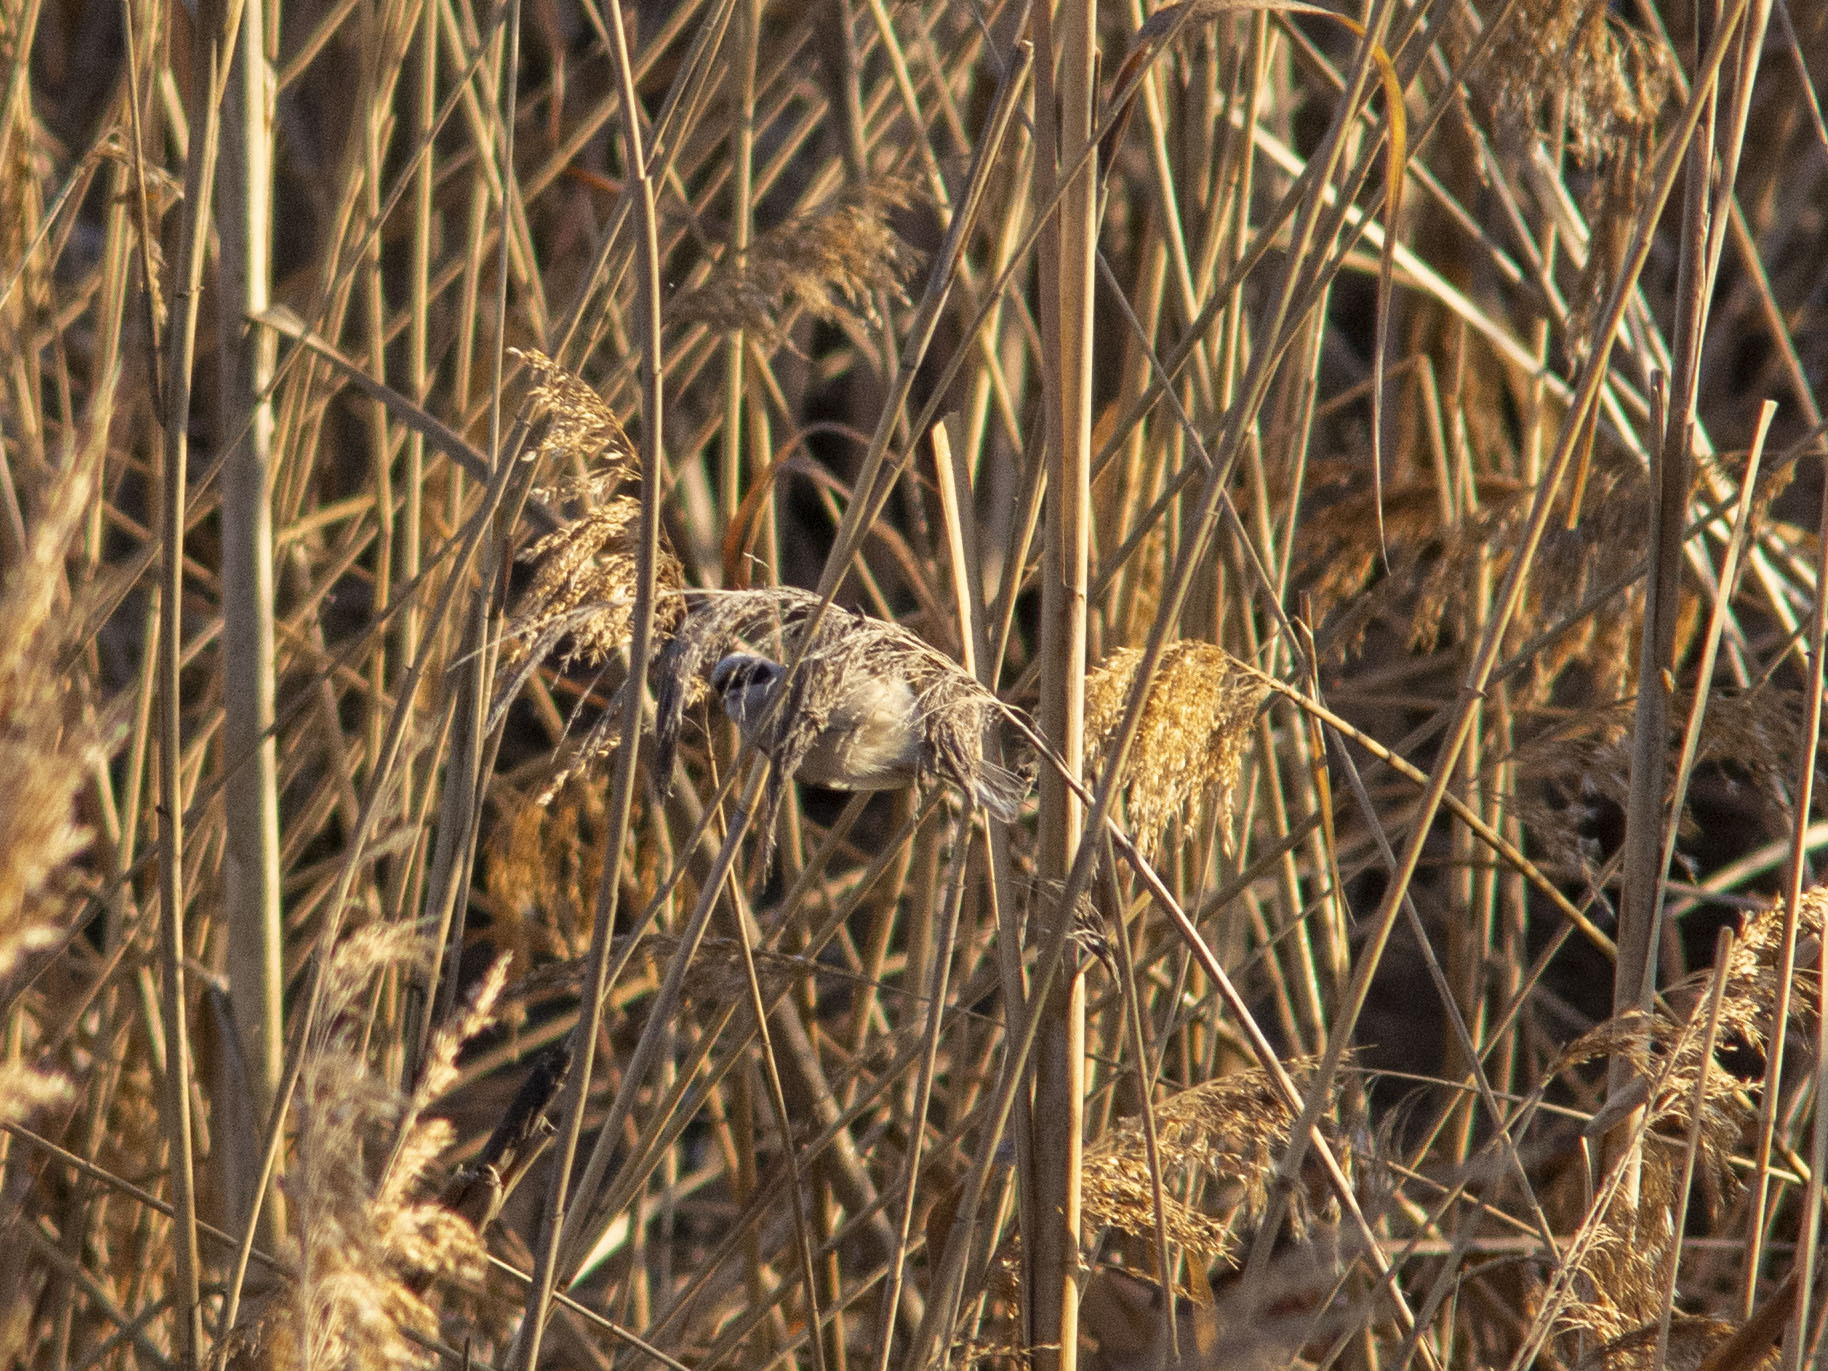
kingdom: Animalia
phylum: Chordata
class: Aves
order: Passeriformes
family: Remizidae
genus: Remiz
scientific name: Remiz pendulinus
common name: Eurasian penduline tit
